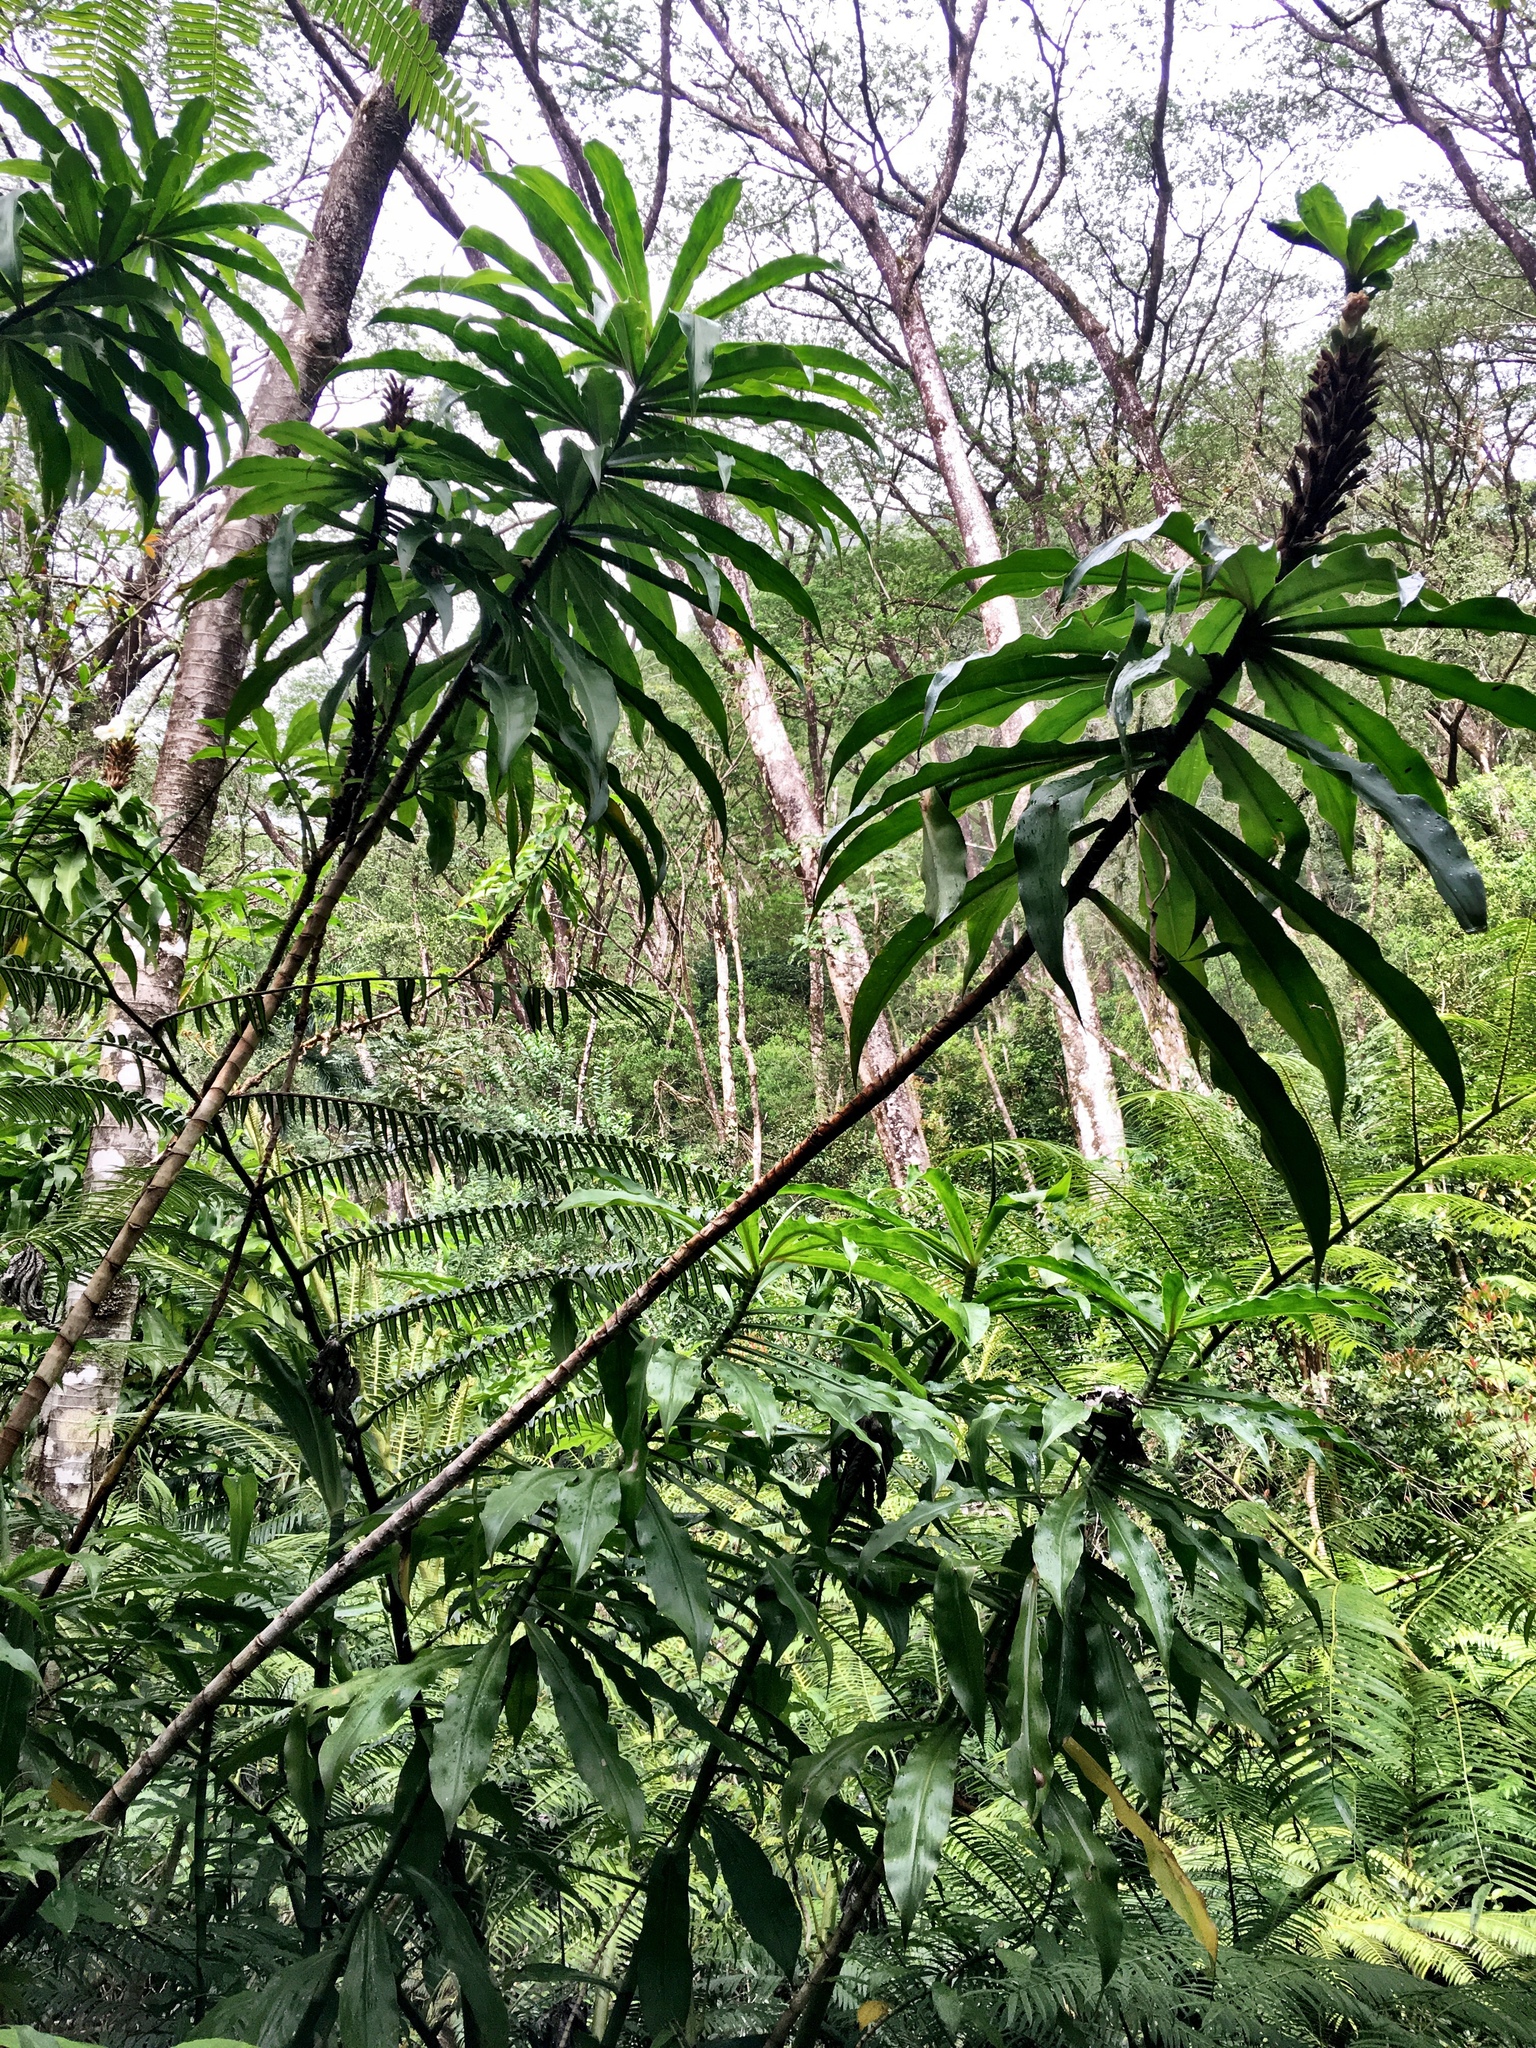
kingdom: Plantae
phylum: Tracheophyta
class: Liliopsida
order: Zingiberales
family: Costaceae
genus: Dimerocostus
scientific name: Dimerocostus strobilaceus
